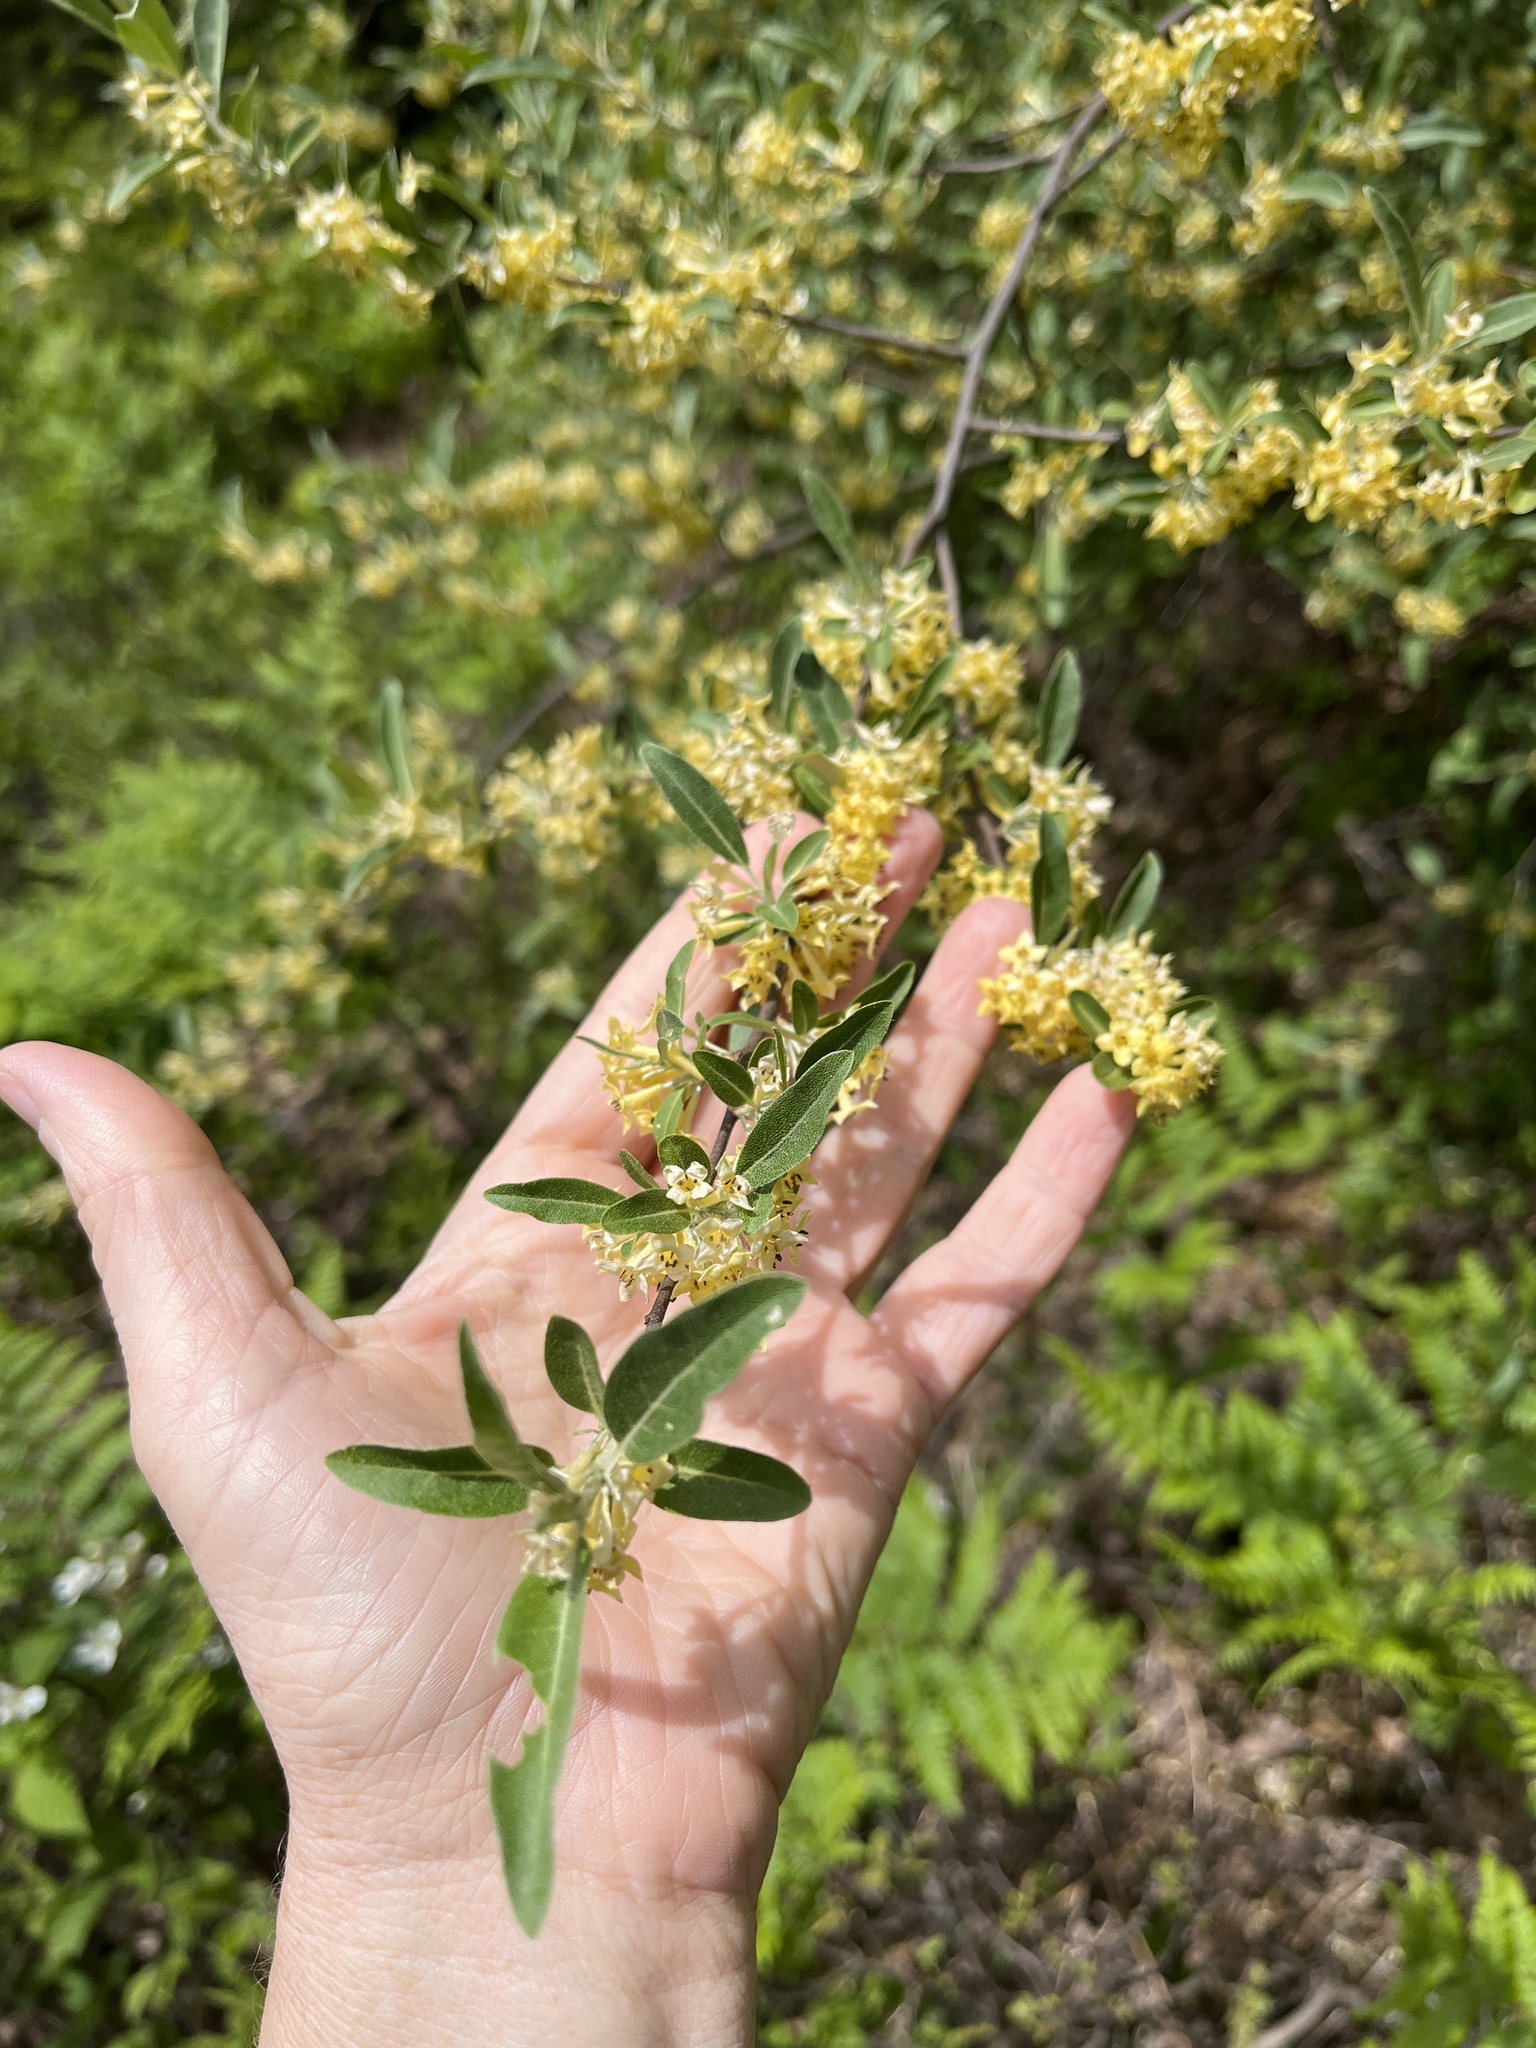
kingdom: Plantae
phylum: Tracheophyta
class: Magnoliopsida
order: Rosales
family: Elaeagnaceae
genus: Elaeagnus
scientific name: Elaeagnus umbellata
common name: Autumn olive
